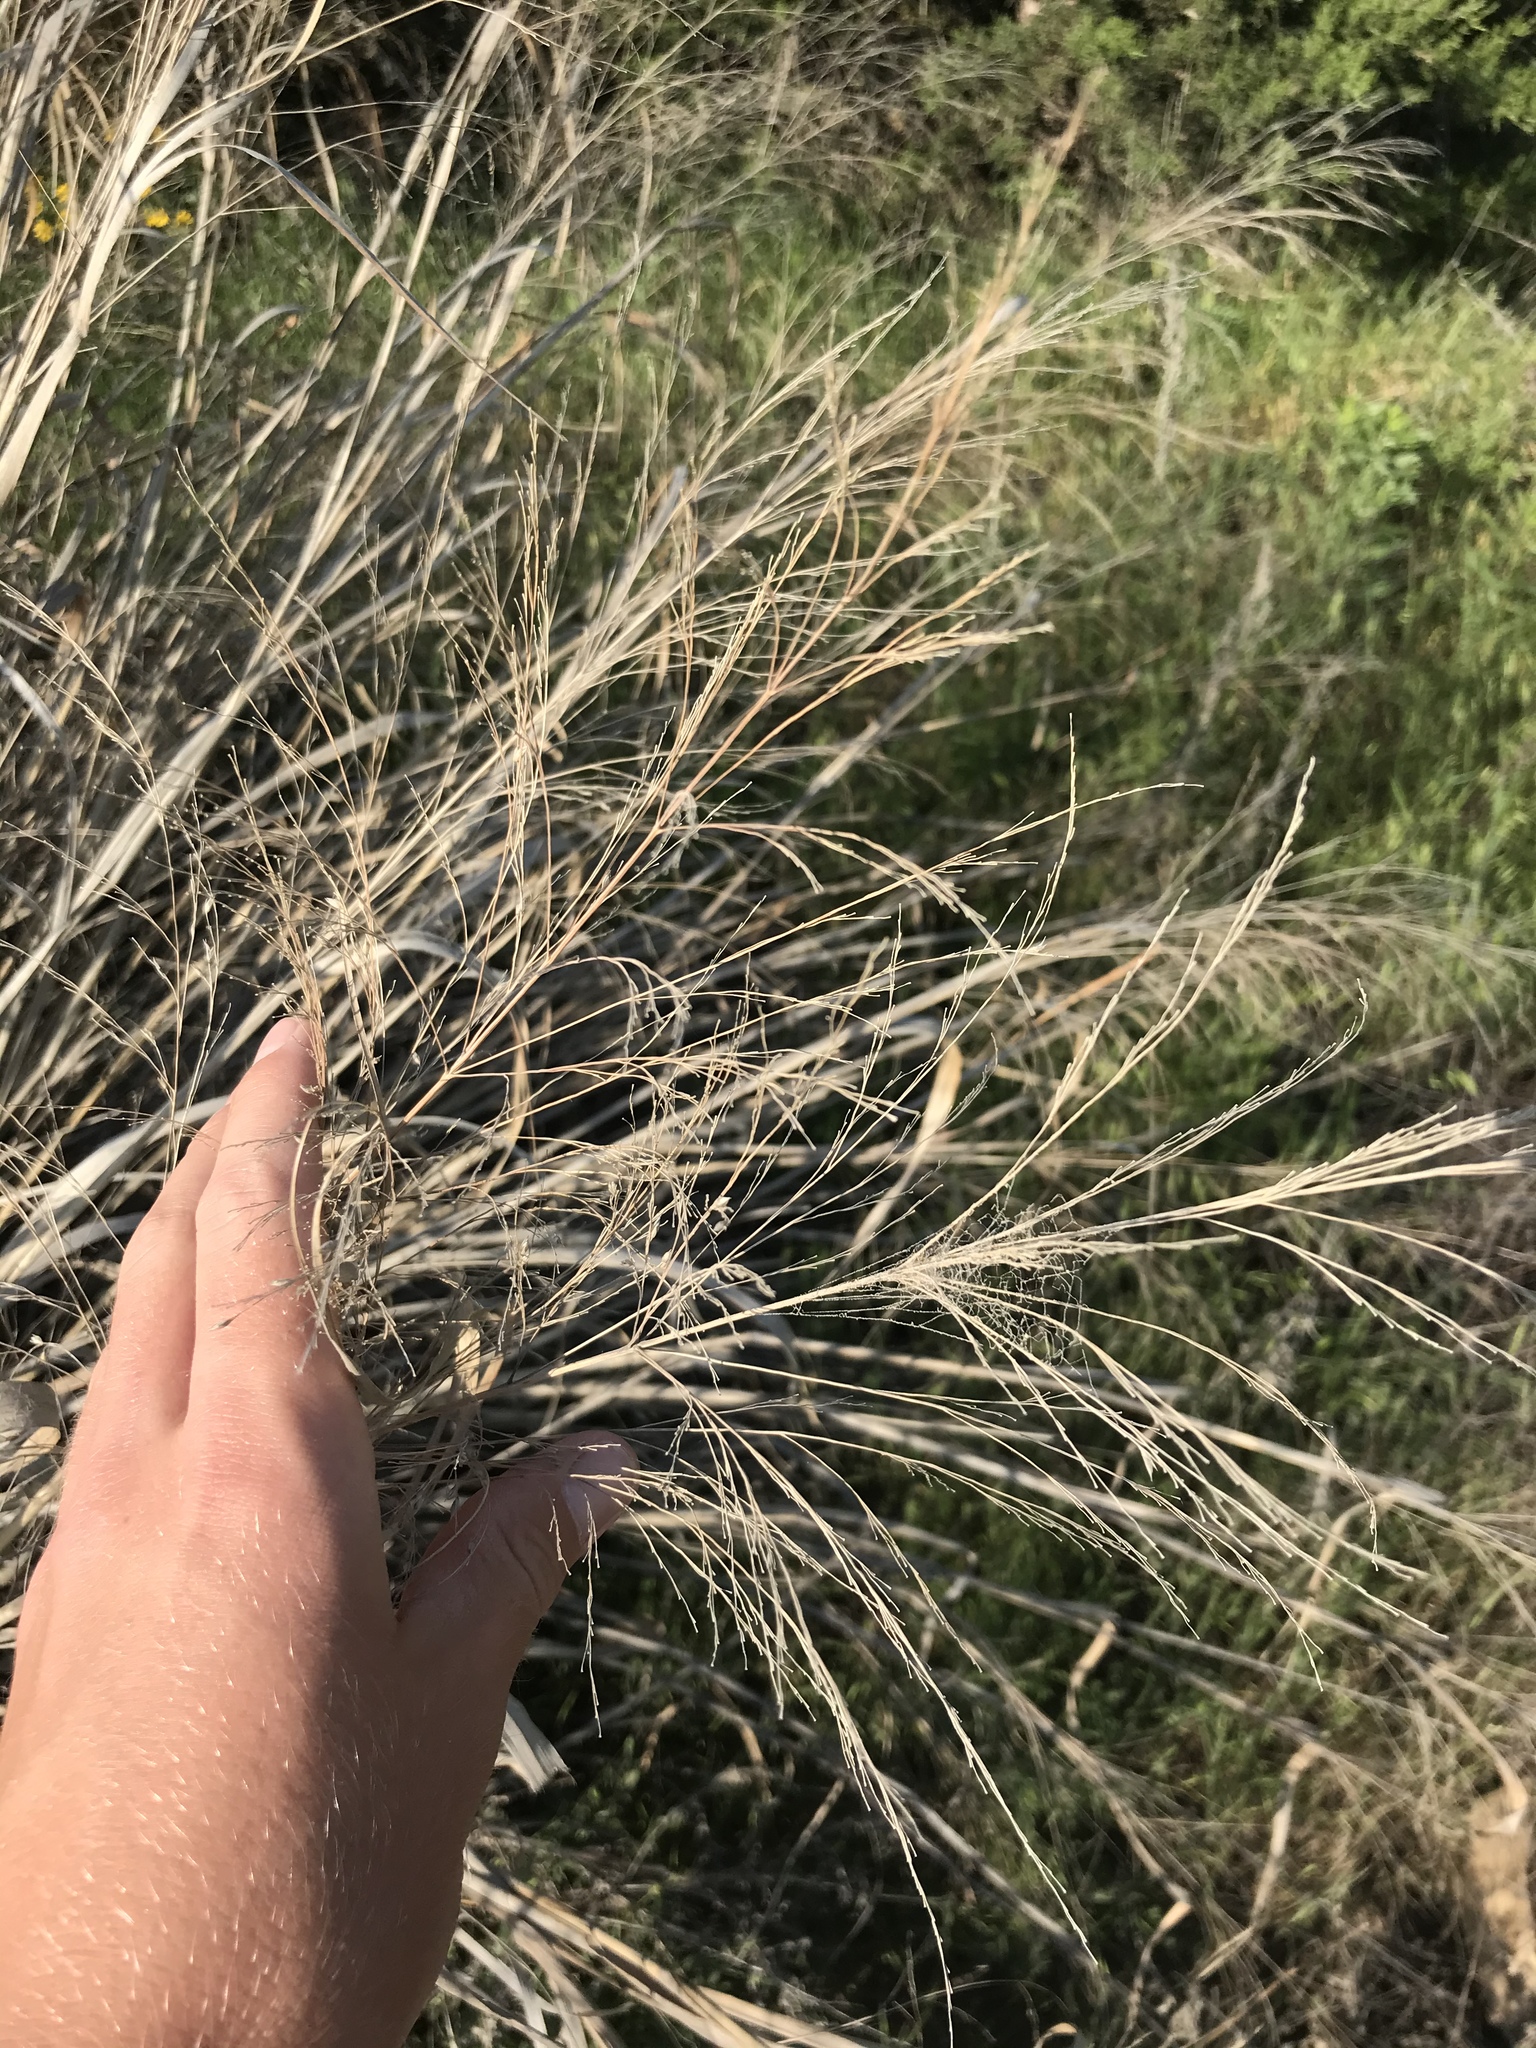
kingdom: Plantae
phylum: Tracheophyta
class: Liliopsida
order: Poales
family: Poaceae
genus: Panicum
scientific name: Panicum virgatum
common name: Switchgrass
